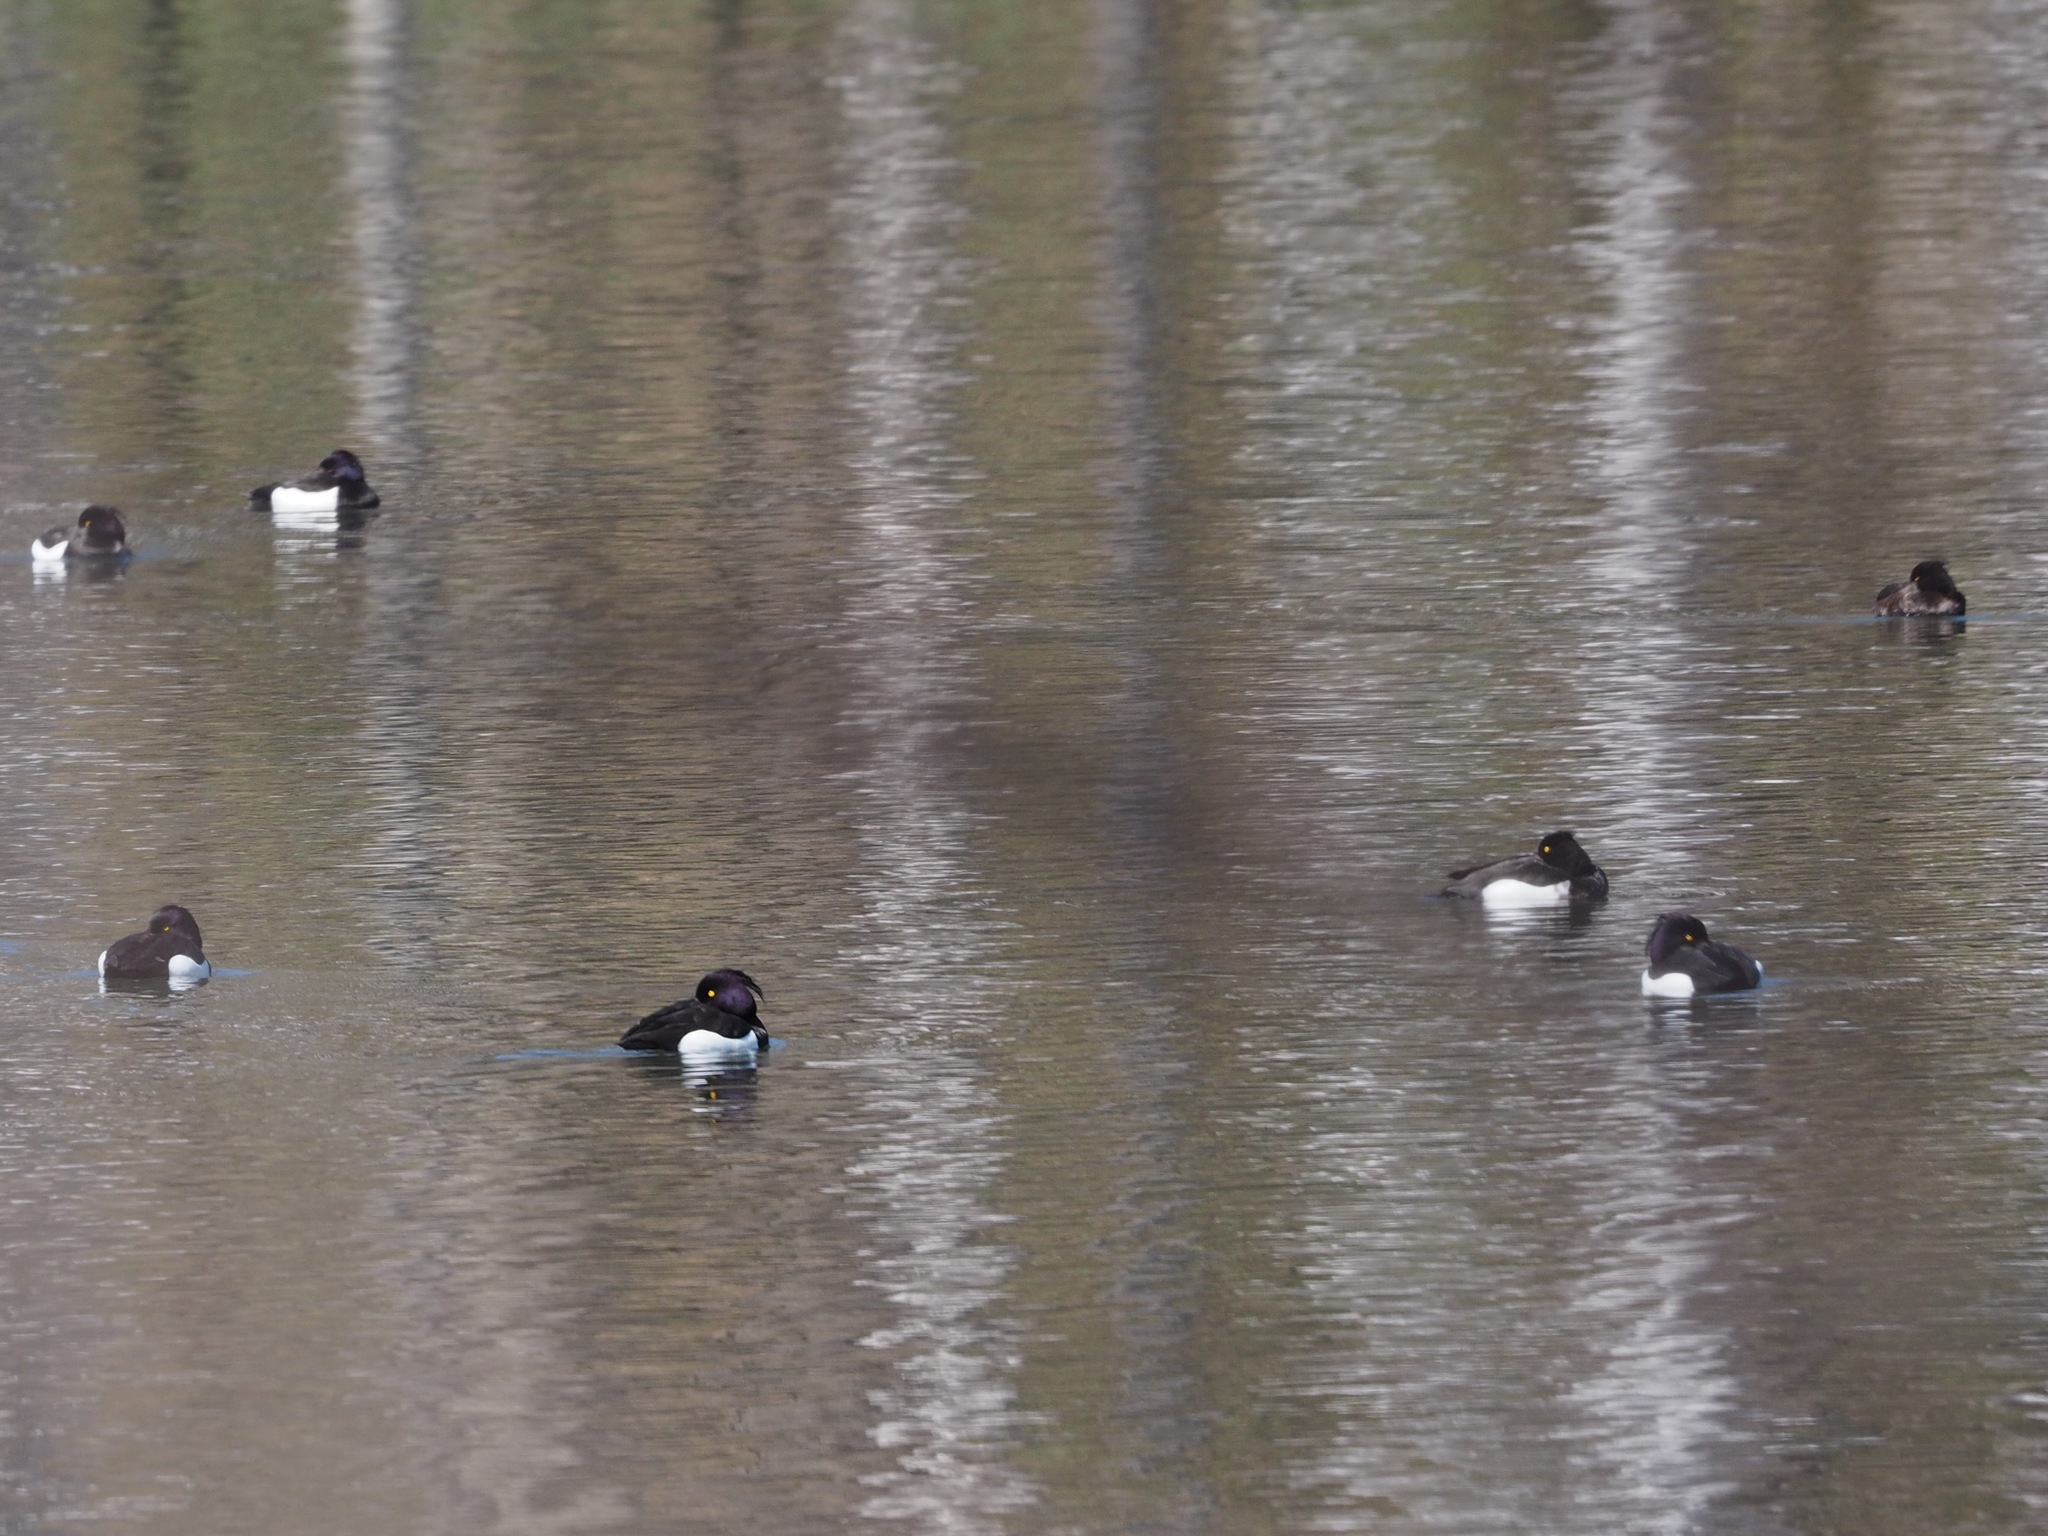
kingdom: Animalia
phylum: Chordata
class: Aves
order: Anseriformes
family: Anatidae
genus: Aythya
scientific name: Aythya fuligula
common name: Tufted duck
